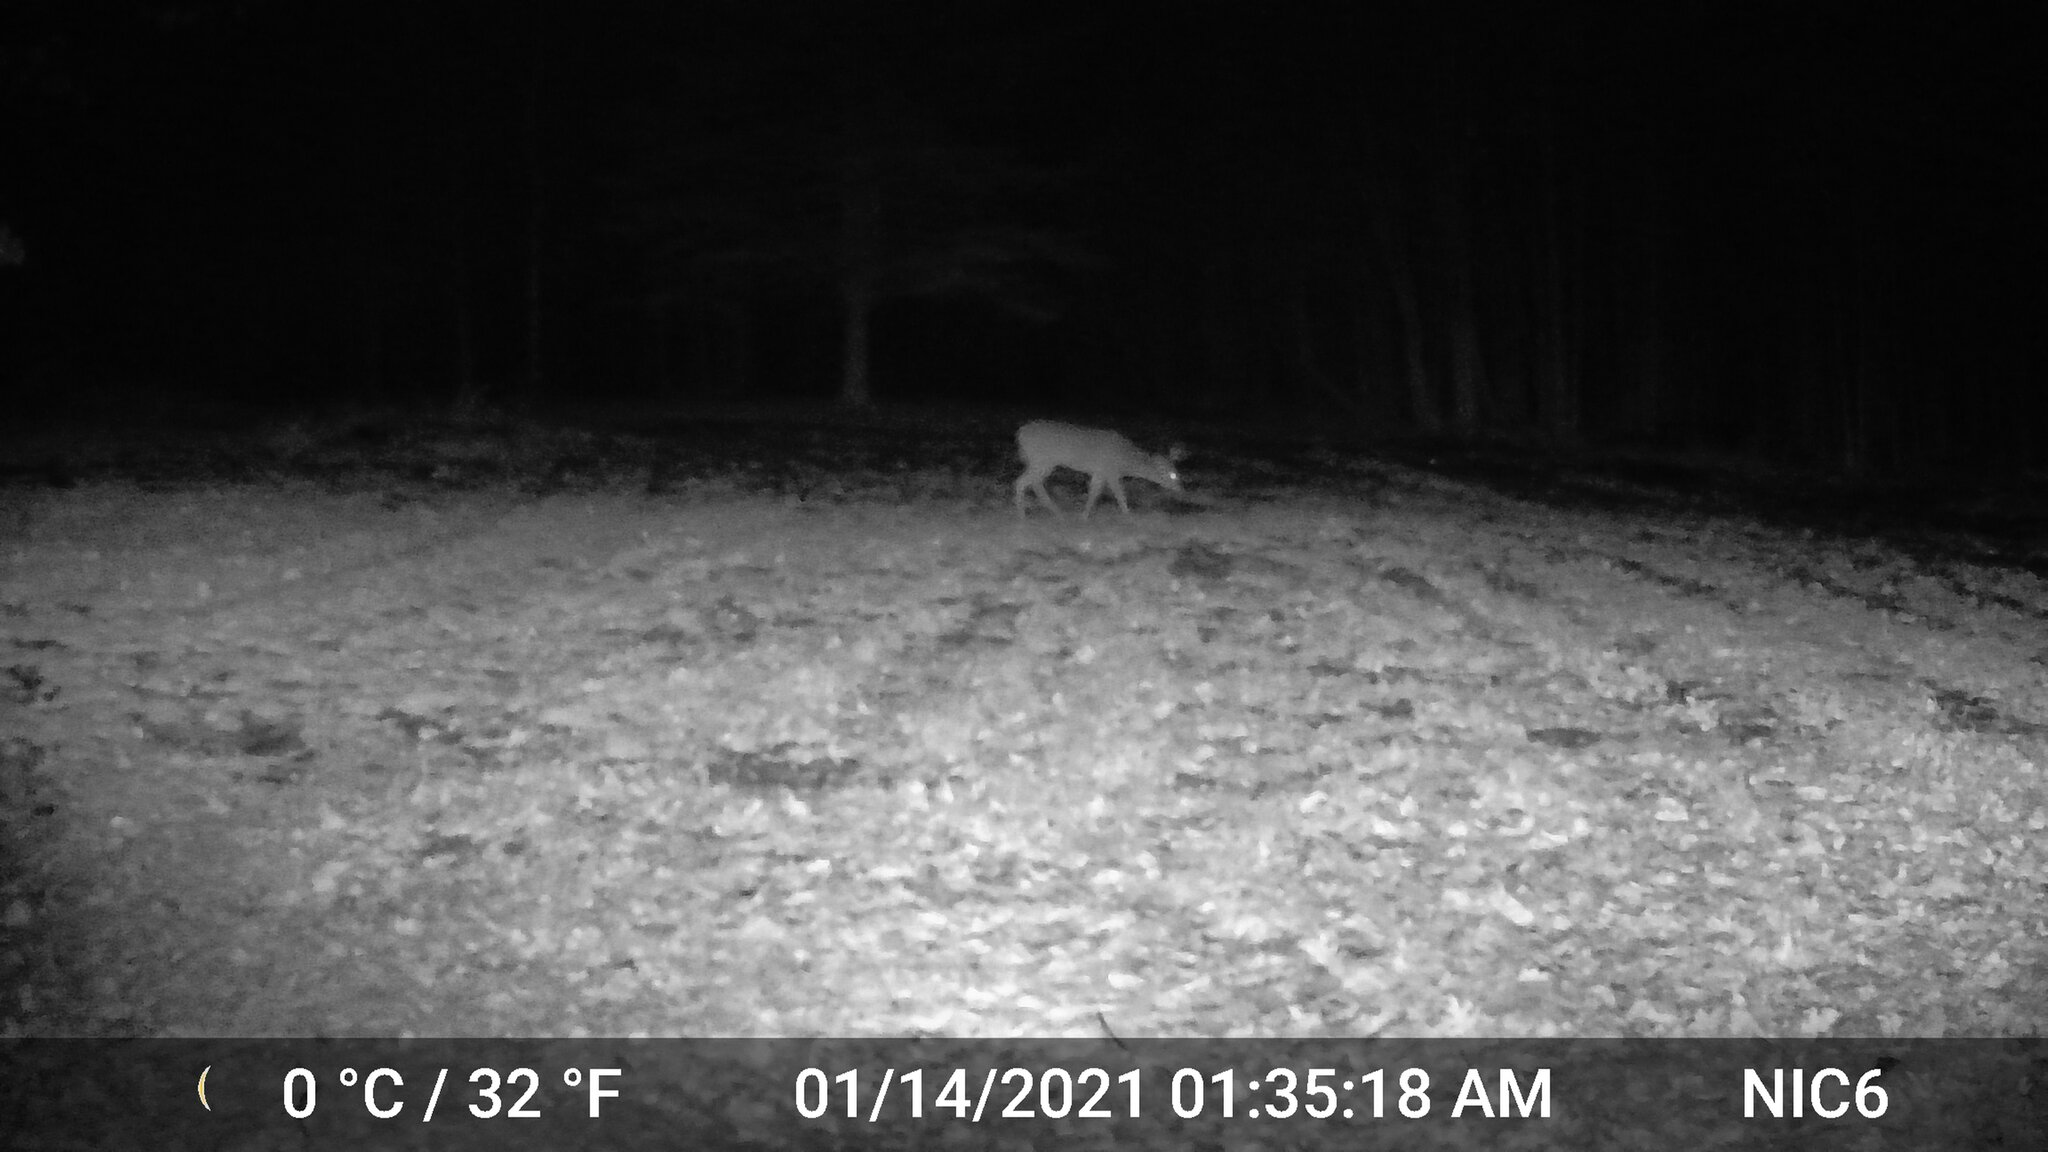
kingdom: Animalia
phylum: Chordata
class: Mammalia
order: Artiodactyla
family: Cervidae
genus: Odocoileus
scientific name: Odocoileus virginianus
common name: White-tailed deer
